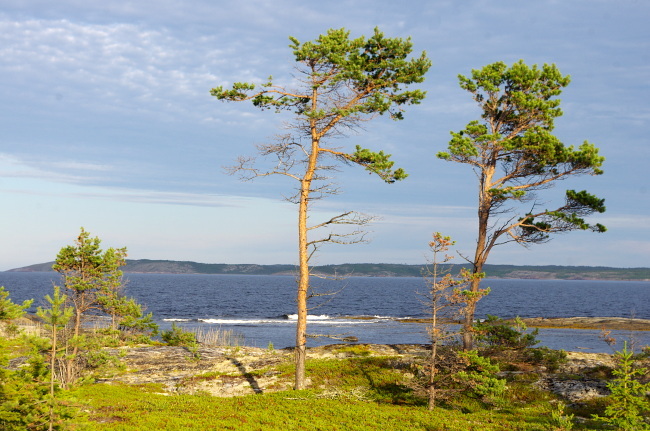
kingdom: Plantae
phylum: Tracheophyta
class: Pinopsida
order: Pinales
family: Pinaceae
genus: Pinus
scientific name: Pinus sylvestris
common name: Scots pine
